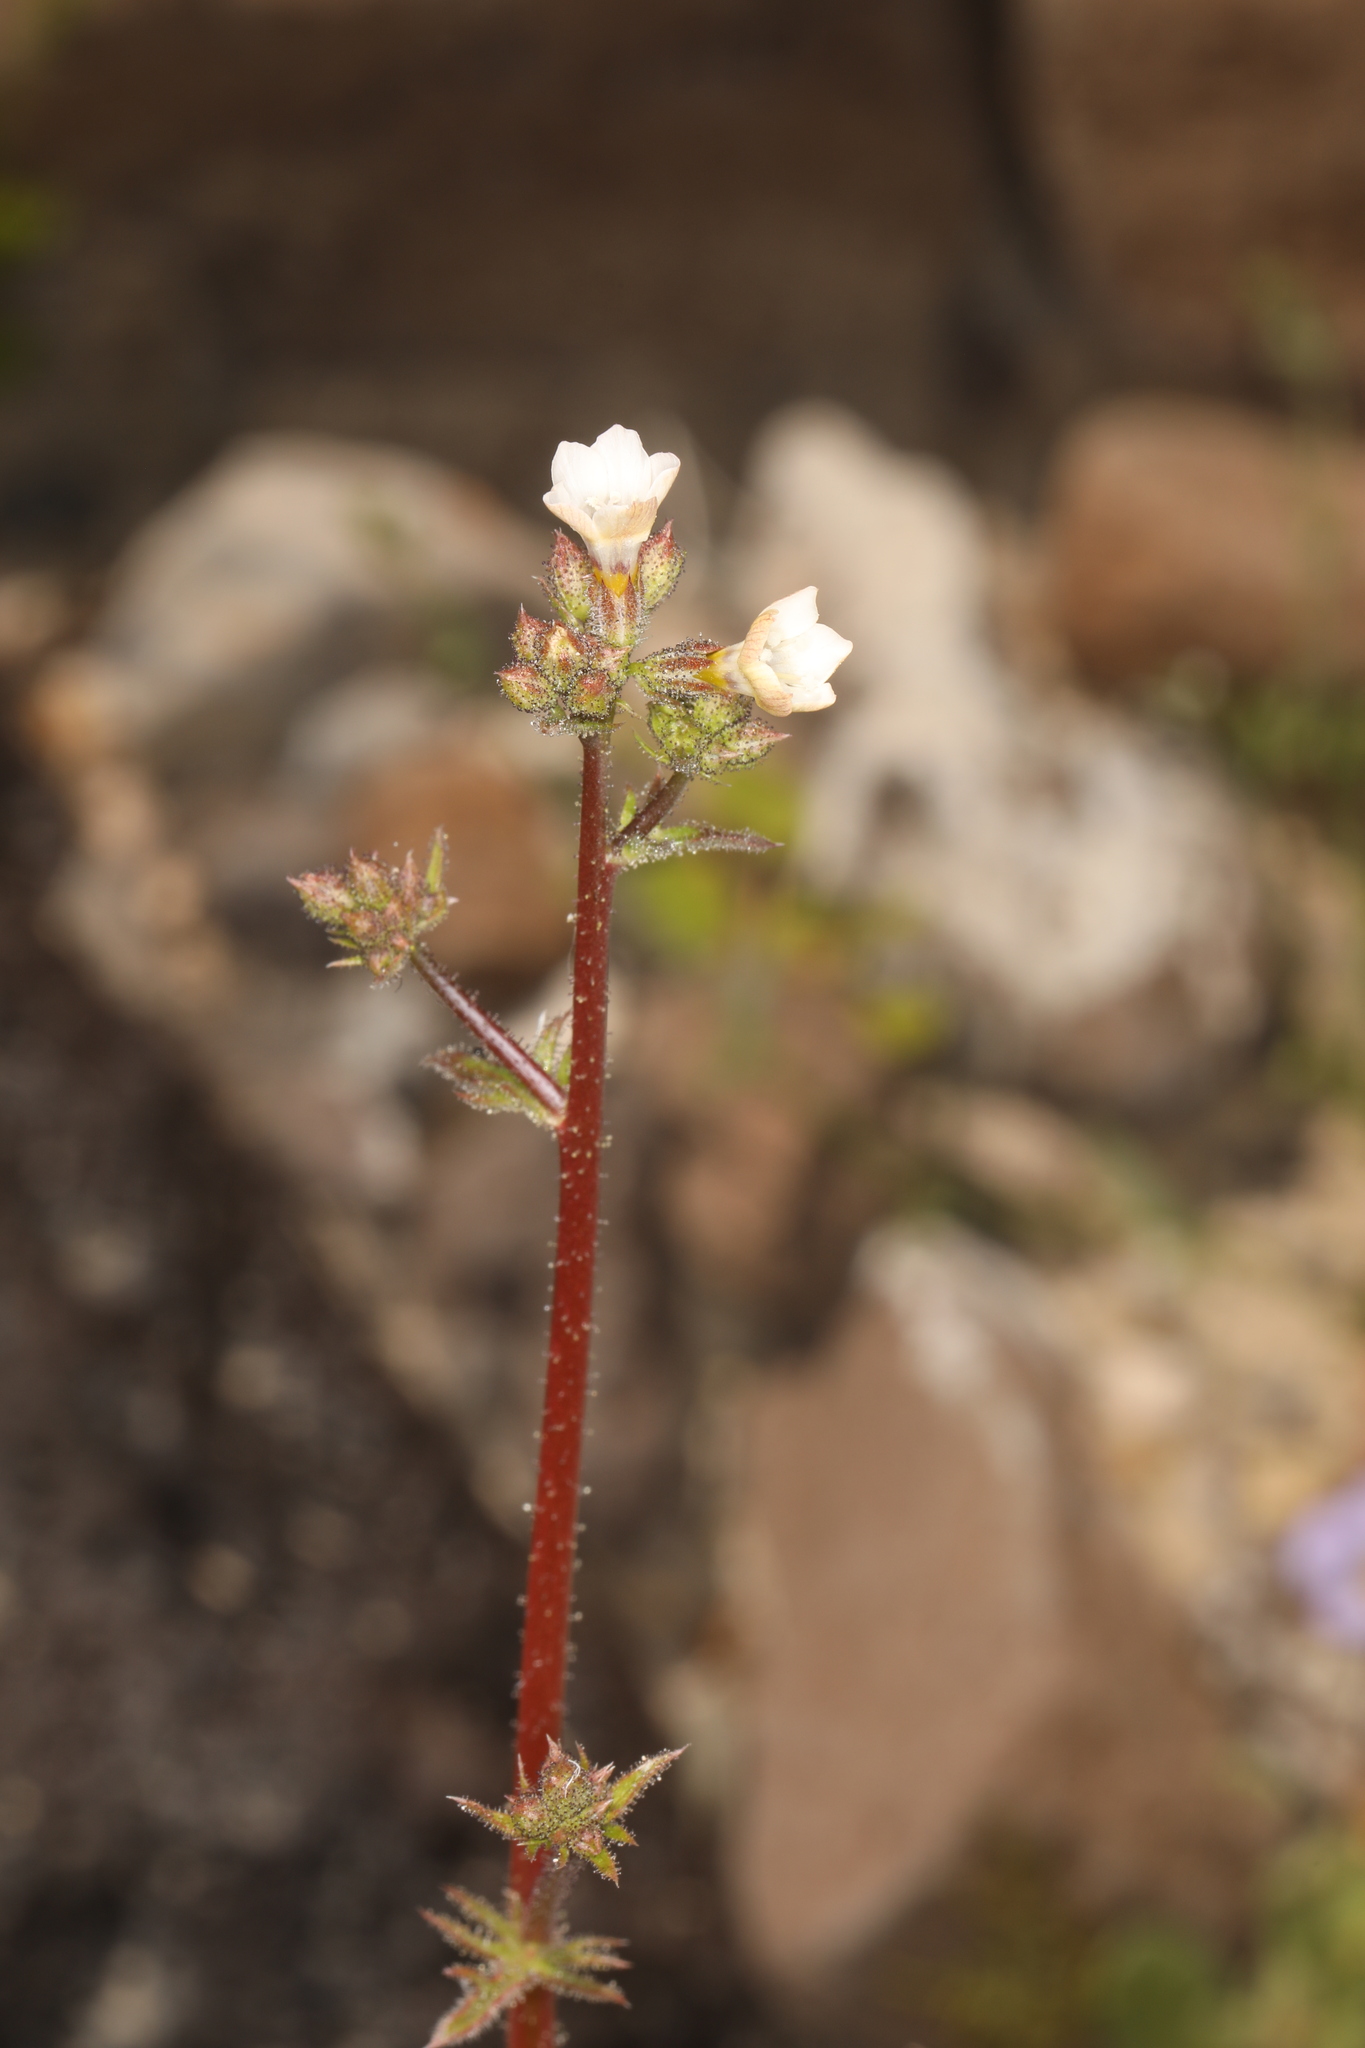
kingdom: Plantae
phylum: Tracheophyta
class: Magnoliopsida
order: Ericales
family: Polemoniaceae
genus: Gilia
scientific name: Gilia stellata
